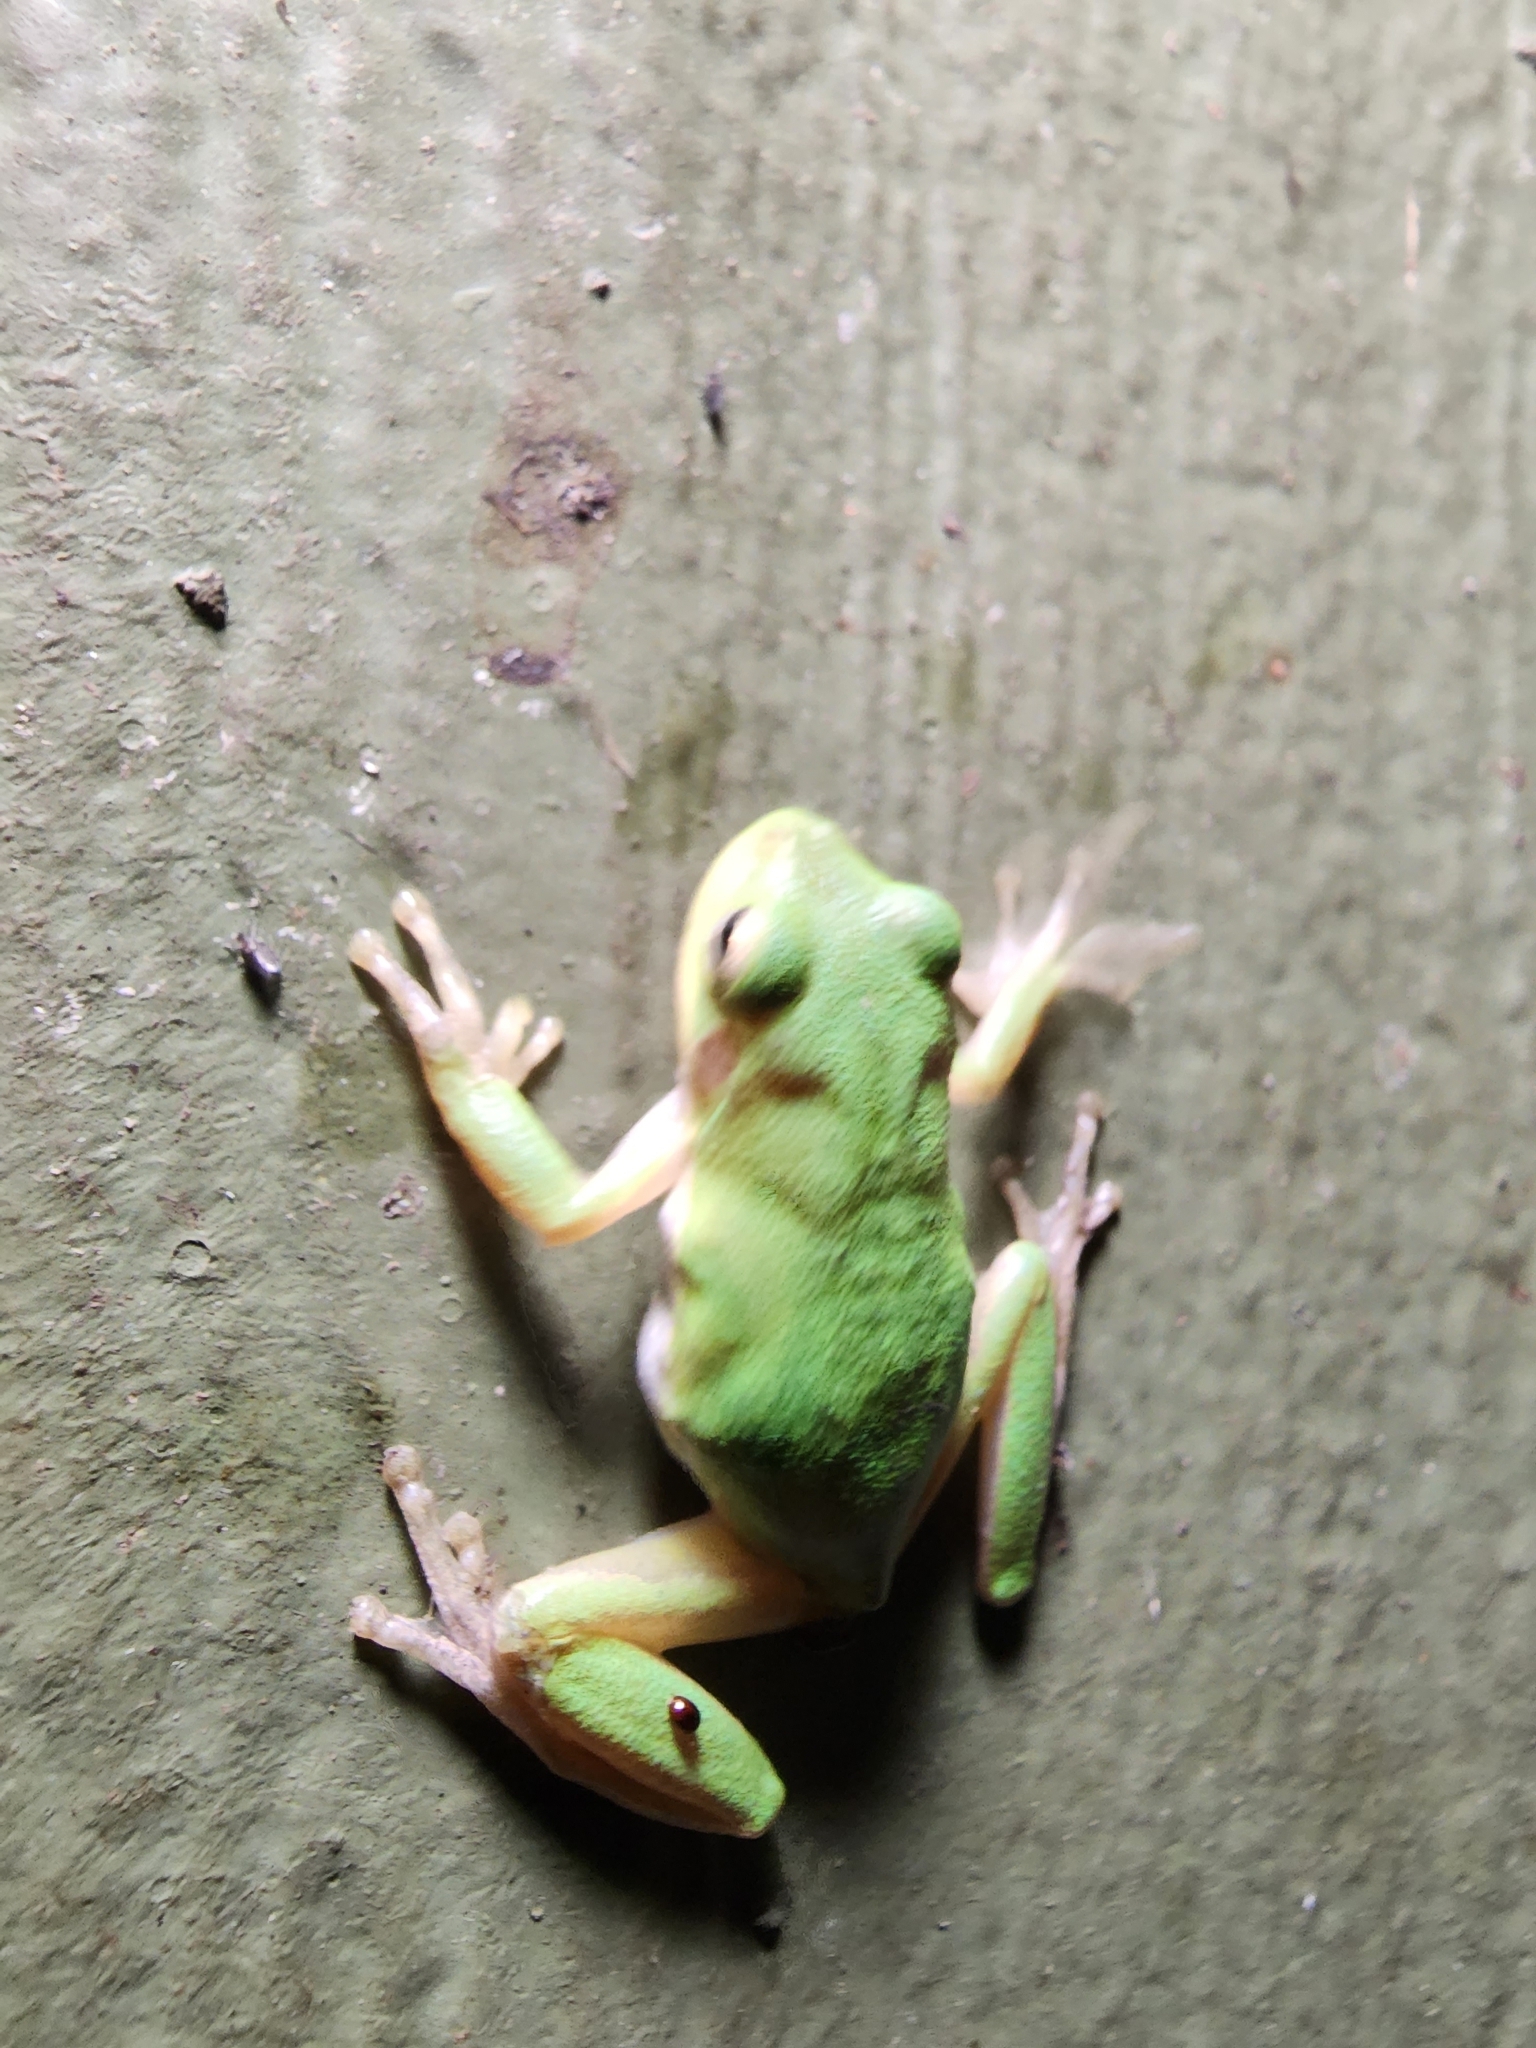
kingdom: Animalia
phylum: Chordata
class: Amphibia
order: Anura
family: Hylidae
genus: Dryophytes
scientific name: Dryophytes squirellus
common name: Squirrel treefrog
